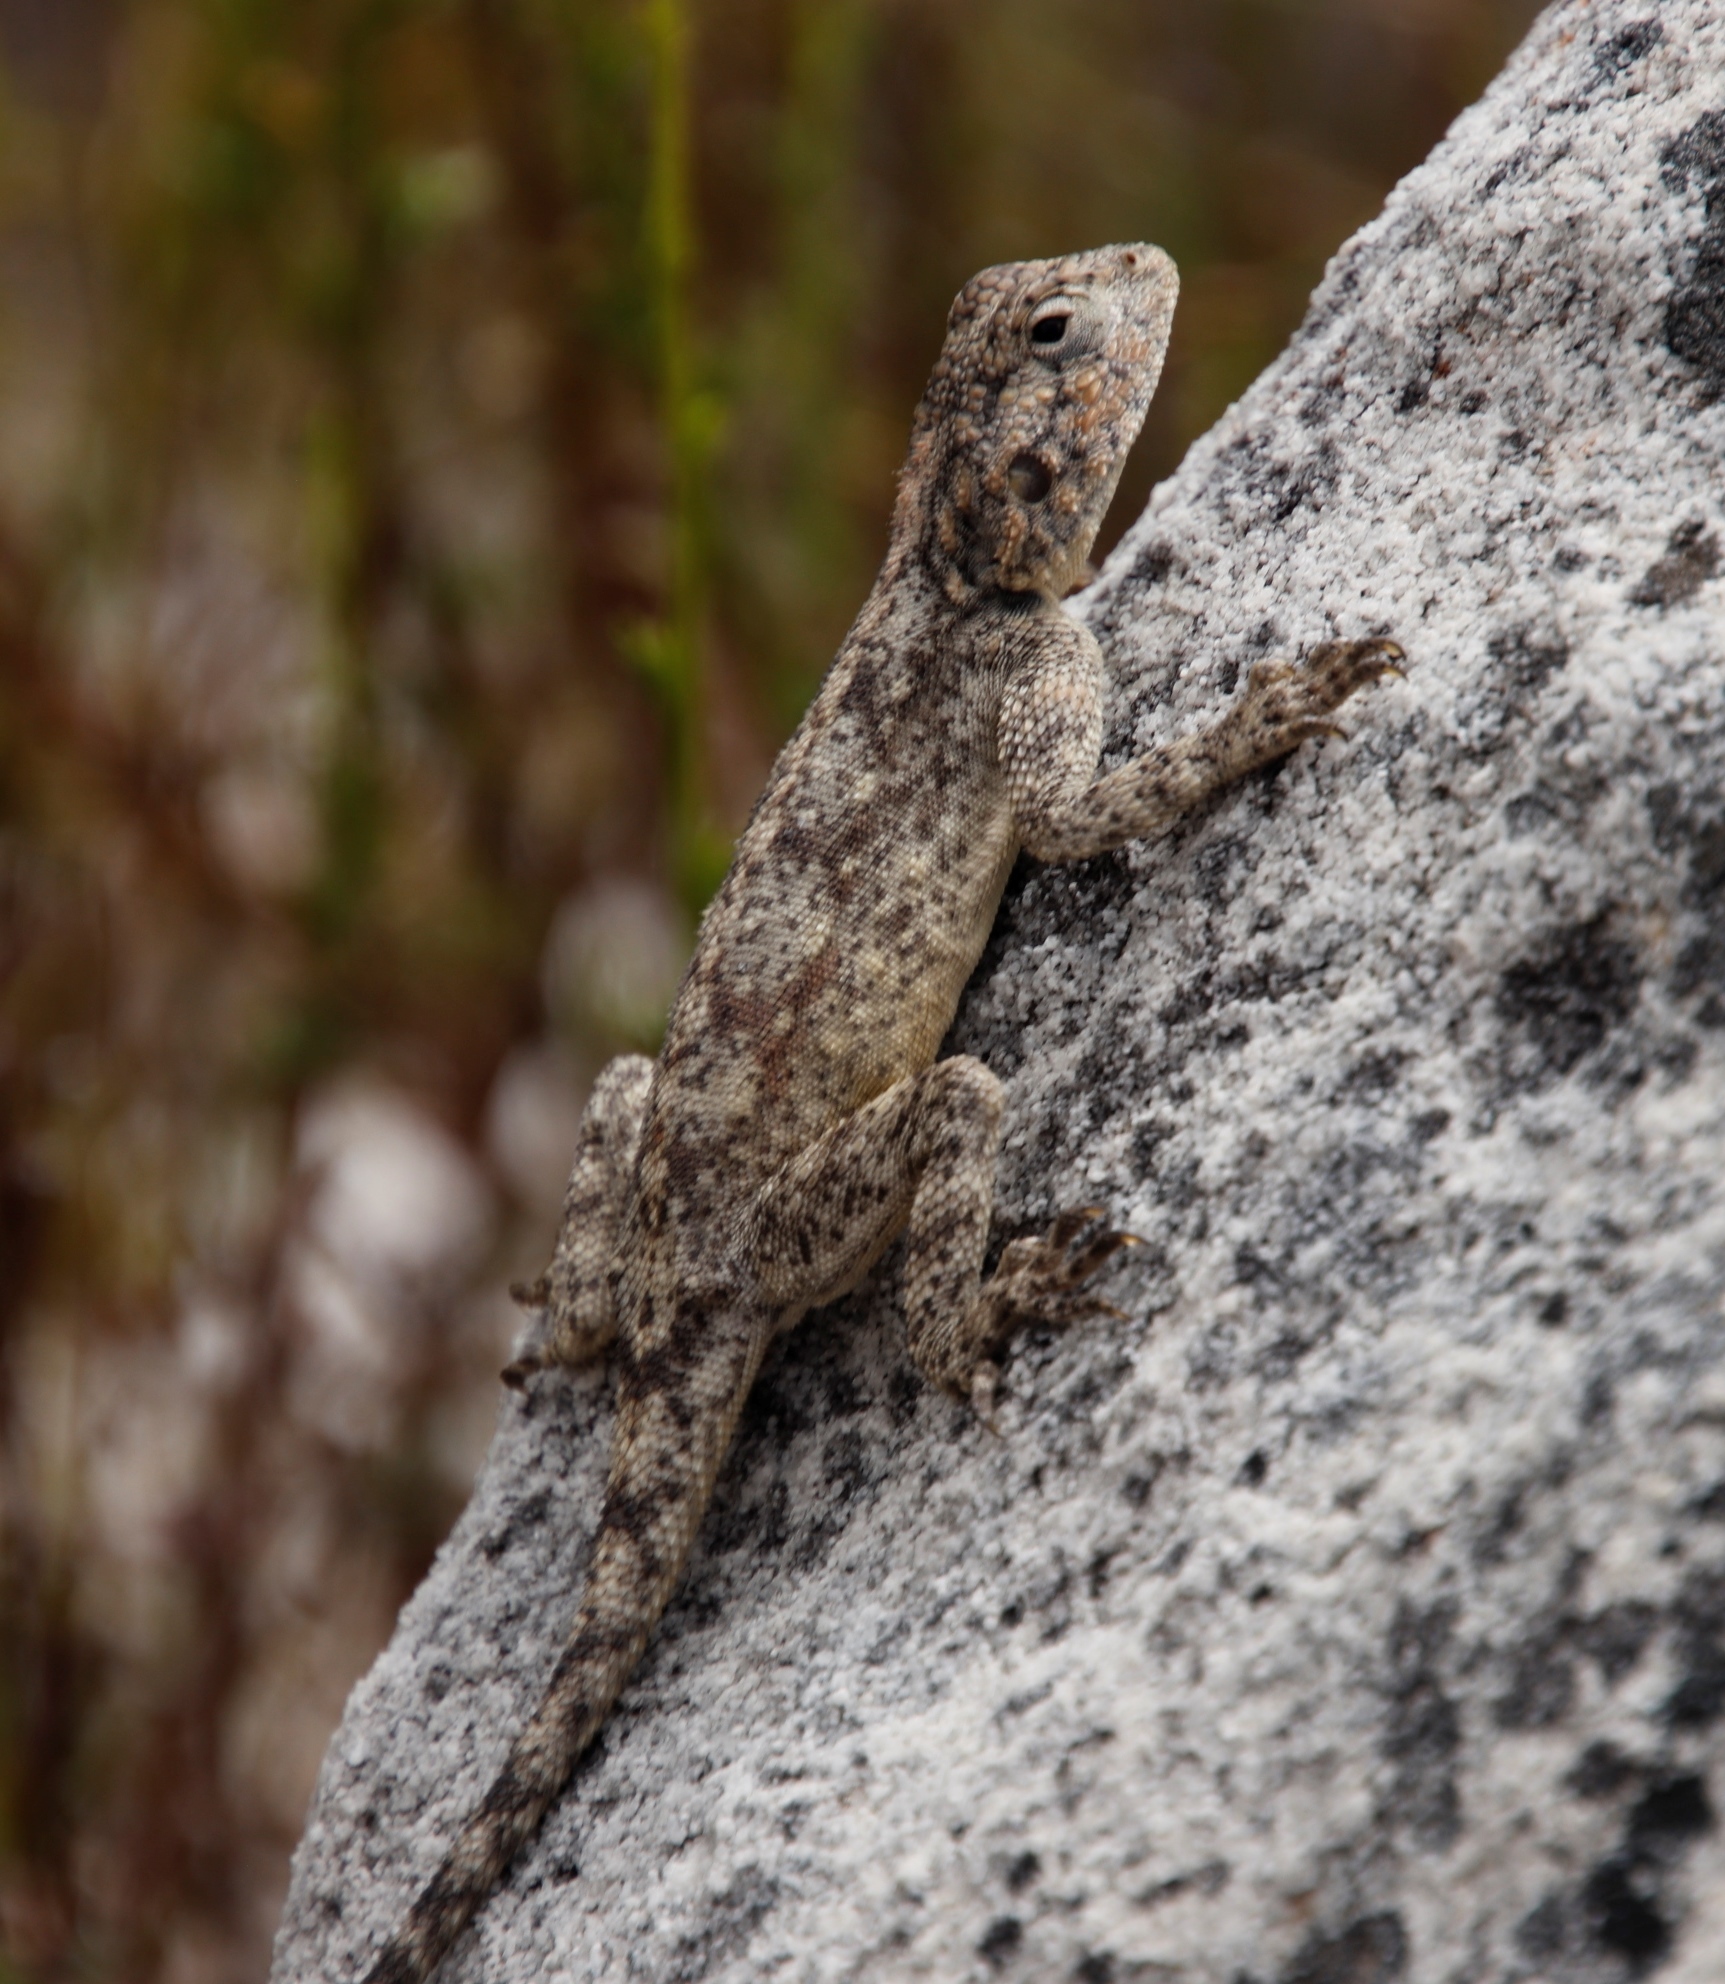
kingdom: Animalia
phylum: Chordata
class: Squamata
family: Agamidae
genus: Agama
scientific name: Agama atra
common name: Southern african rock agama
